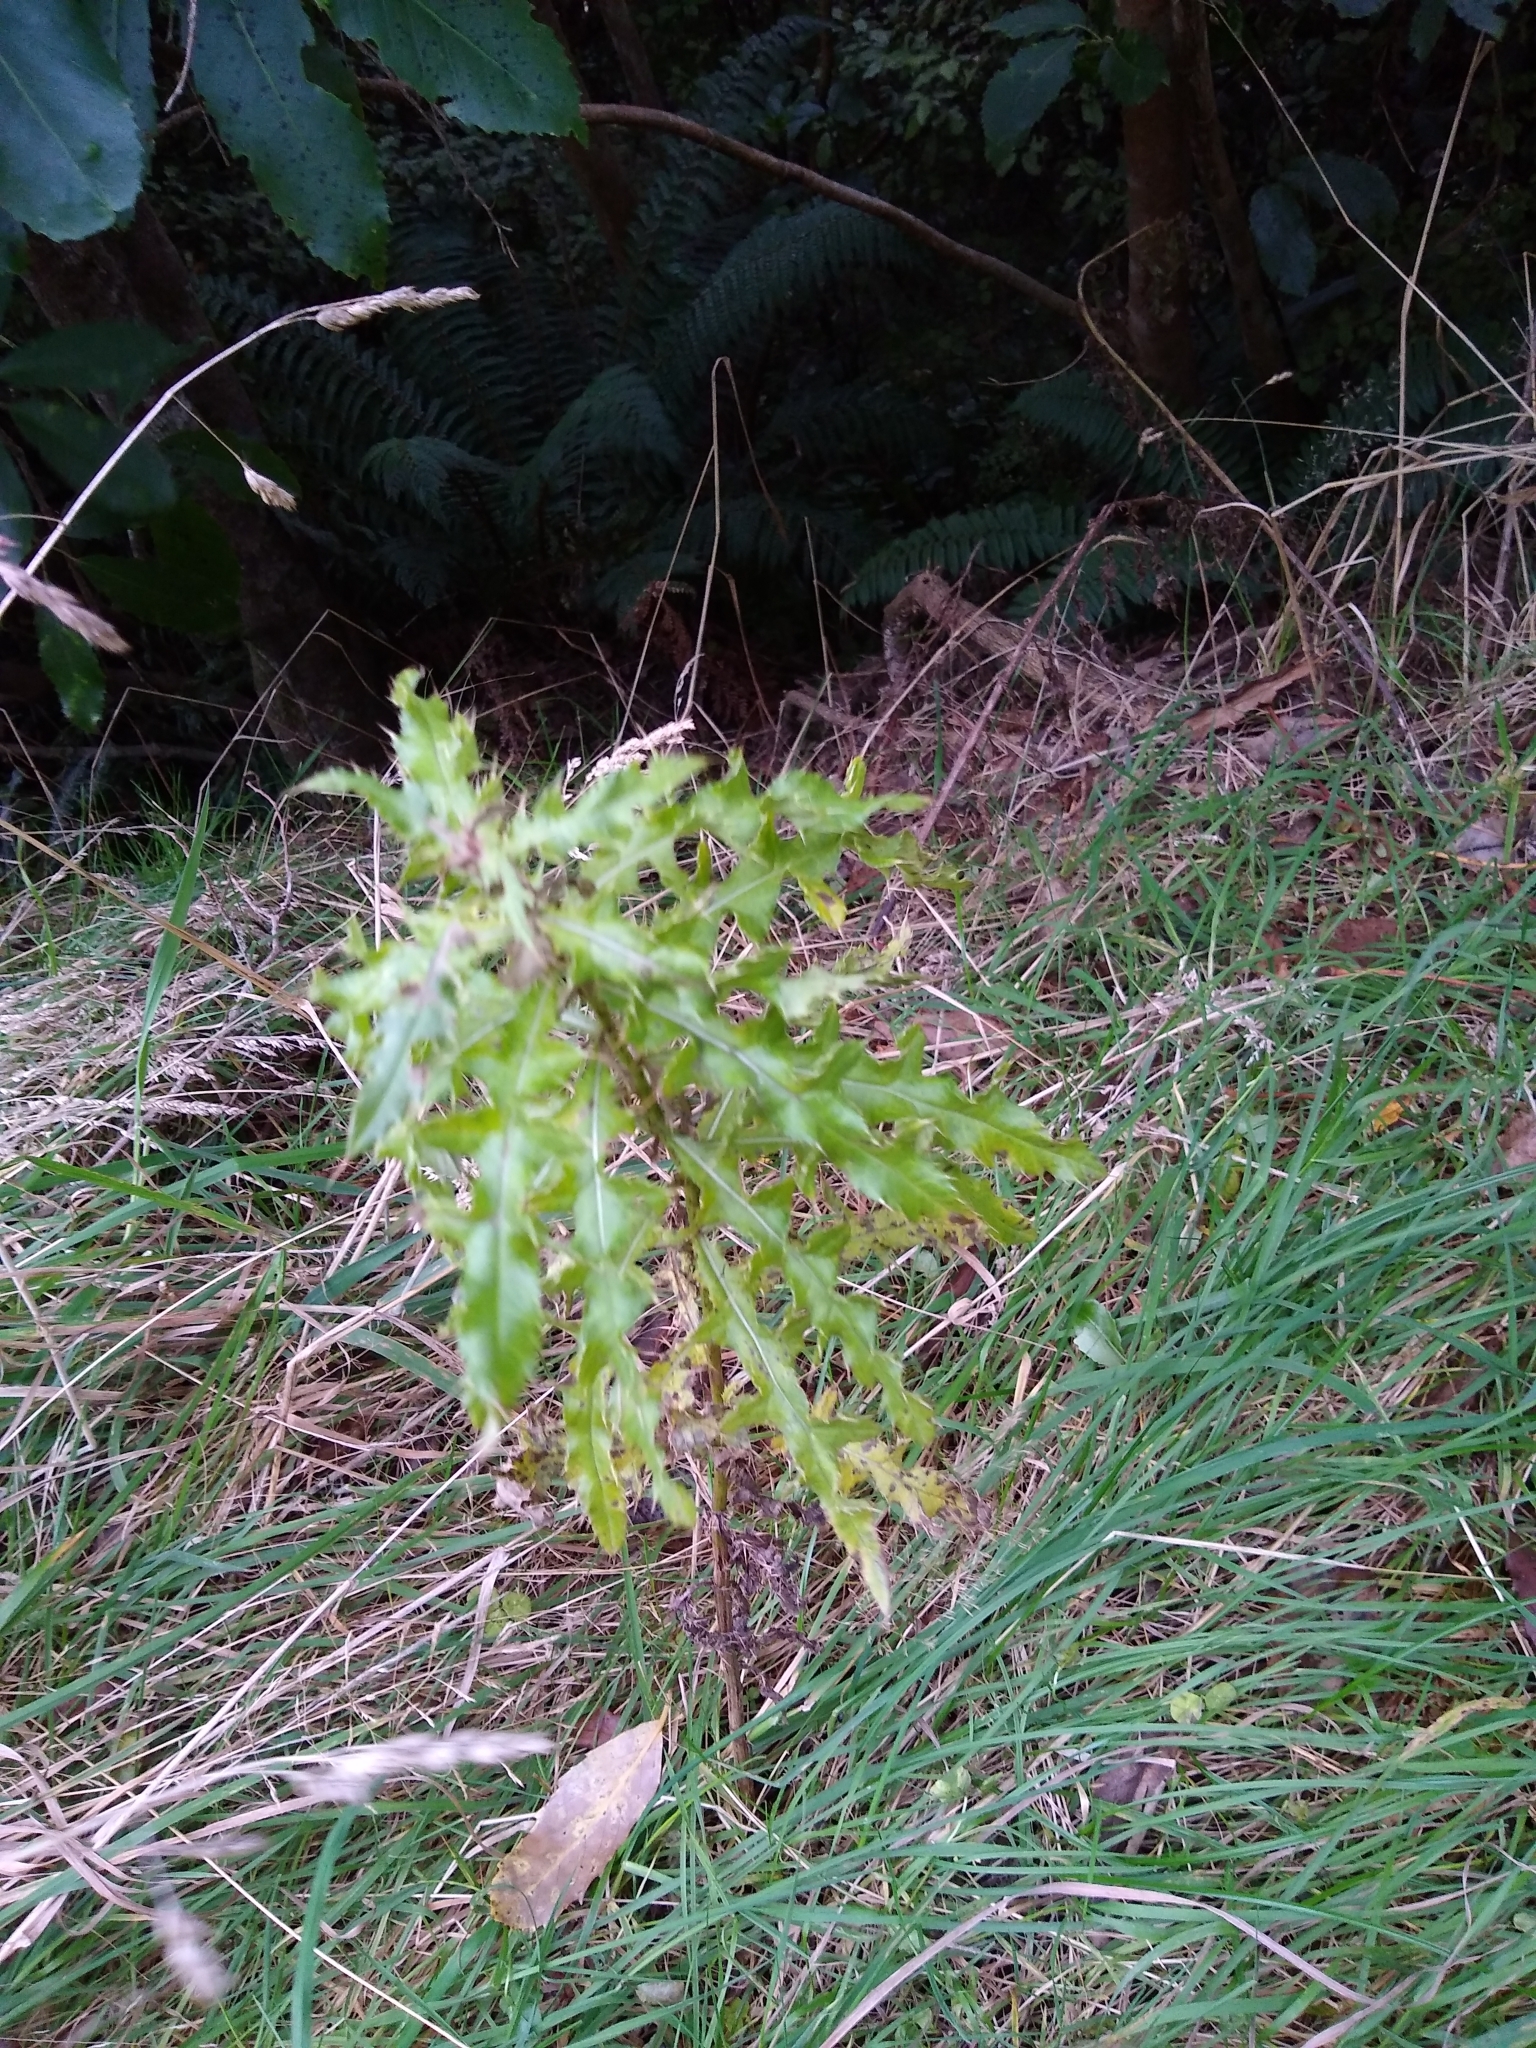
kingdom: Plantae
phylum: Tracheophyta
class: Magnoliopsida
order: Asterales
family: Asteraceae
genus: Cirsium
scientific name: Cirsium arvense
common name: Creeping thistle
